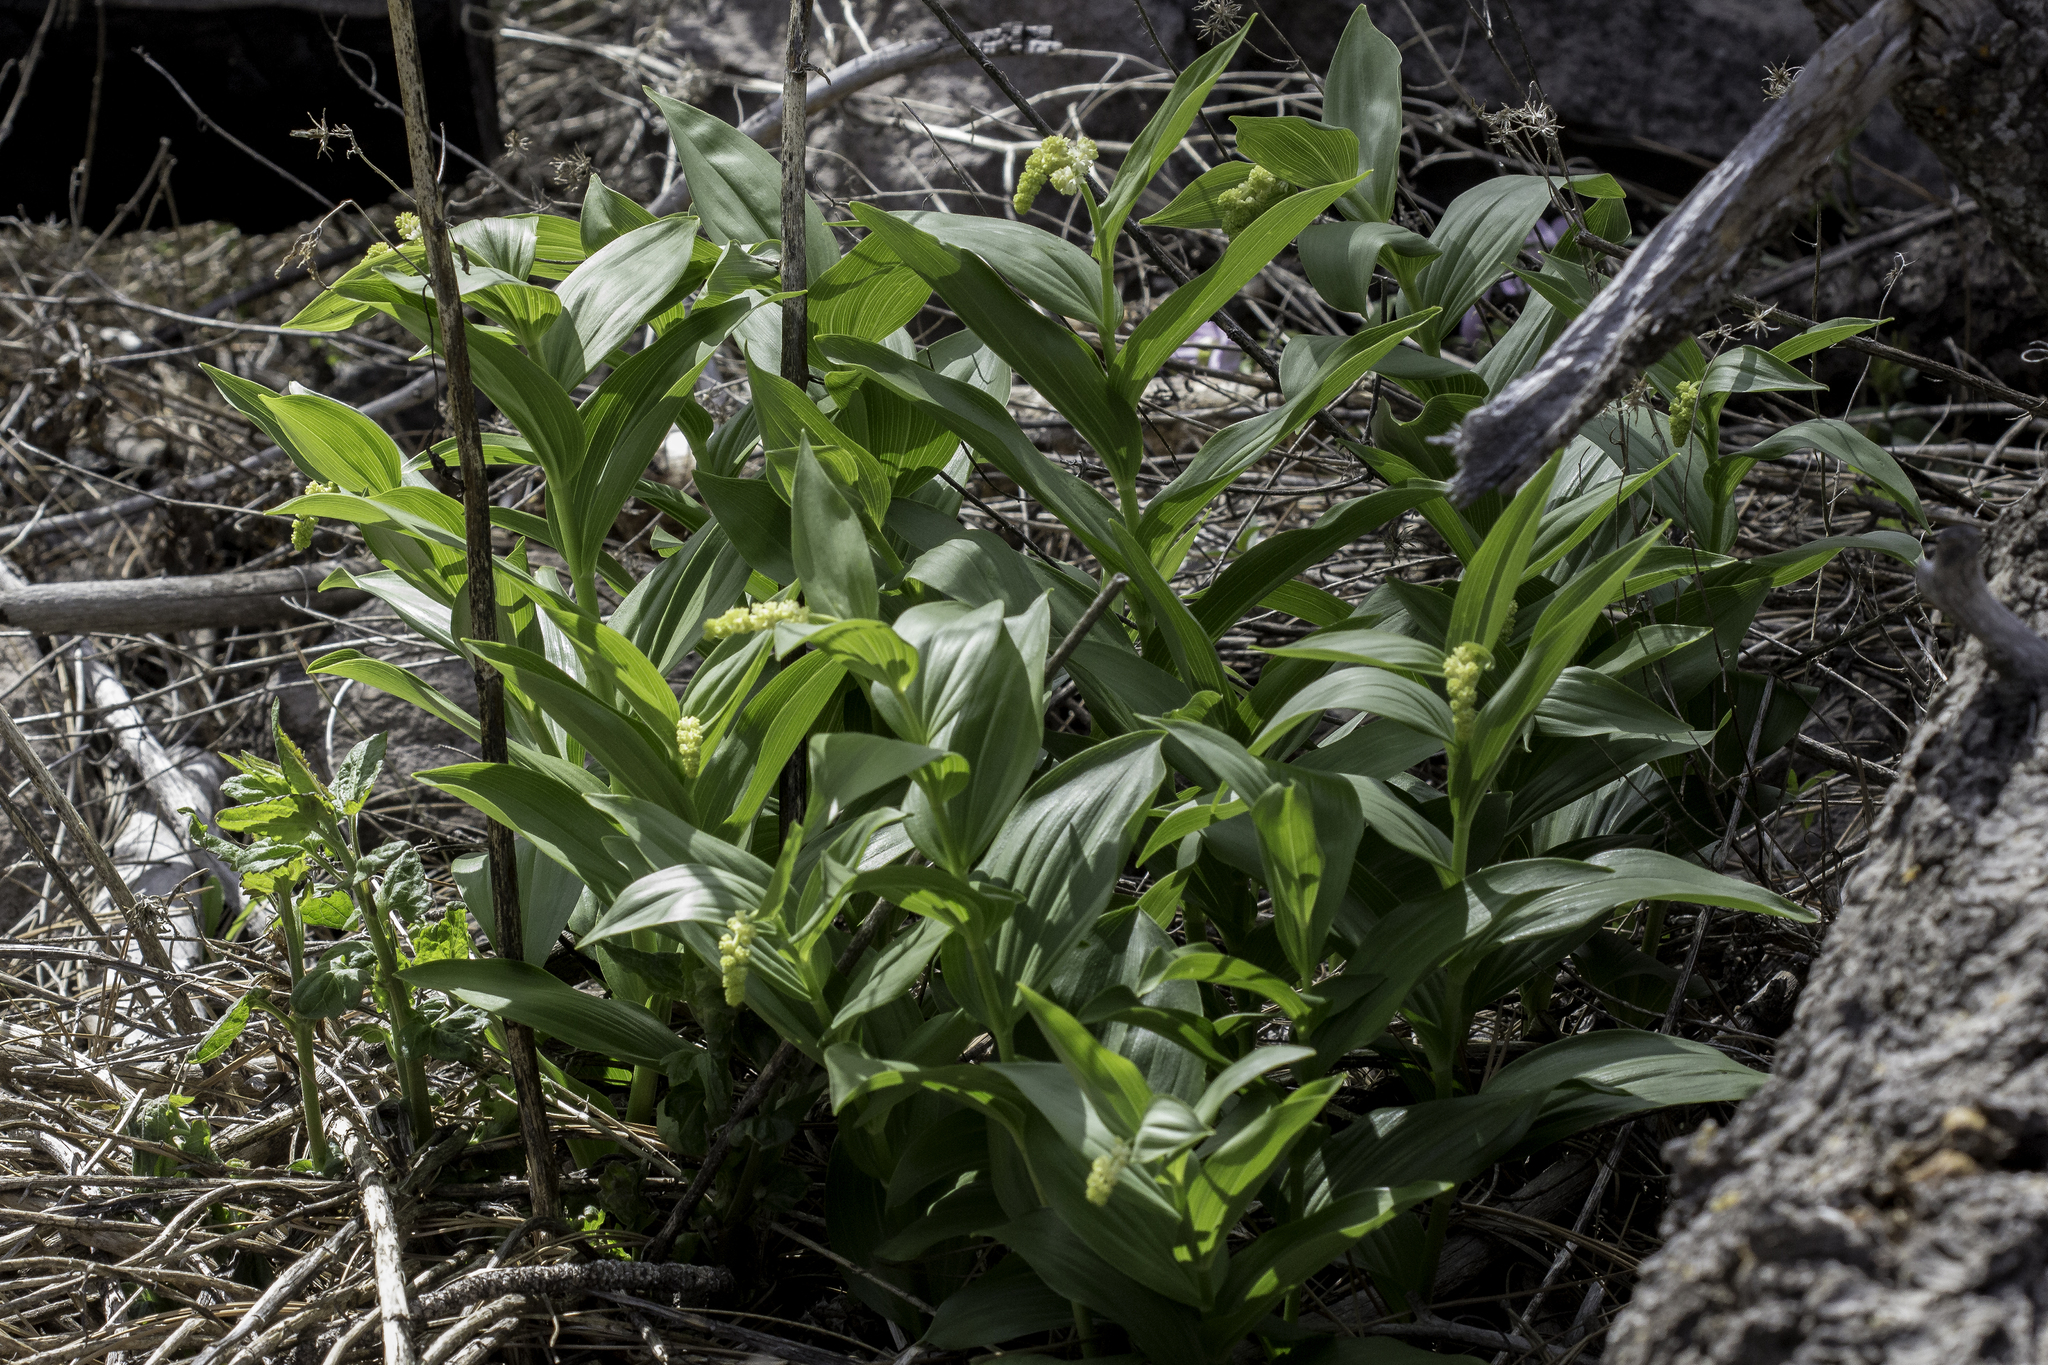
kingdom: Plantae
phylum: Tracheophyta
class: Liliopsida
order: Asparagales
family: Asparagaceae
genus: Maianthemum
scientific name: Maianthemum racemosum
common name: False spikenard
